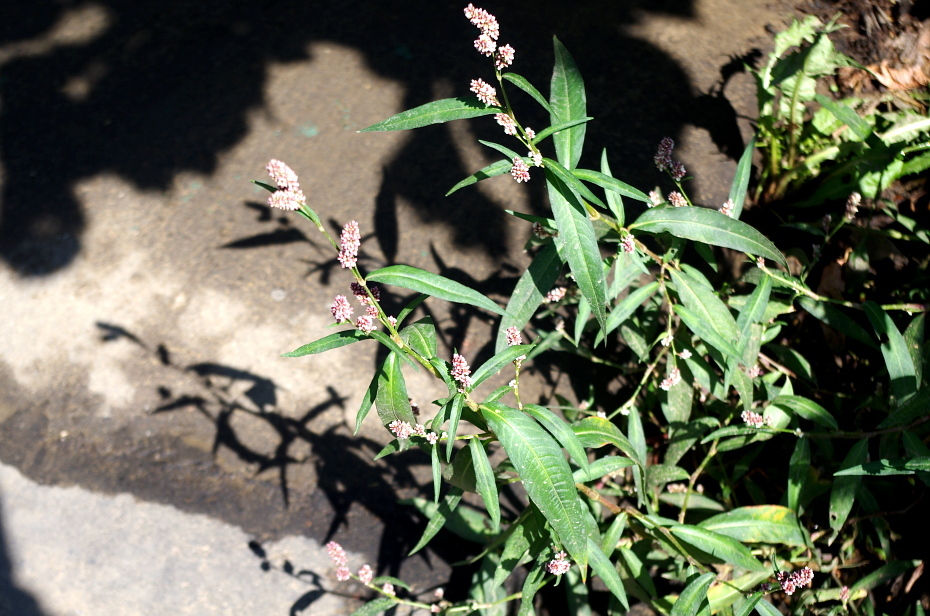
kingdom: Plantae
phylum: Tracheophyta
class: Magnoliopsida
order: Caryophyllales
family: Polygonaceae
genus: Persicaria
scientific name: Persicaria maculosa
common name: Redshank
